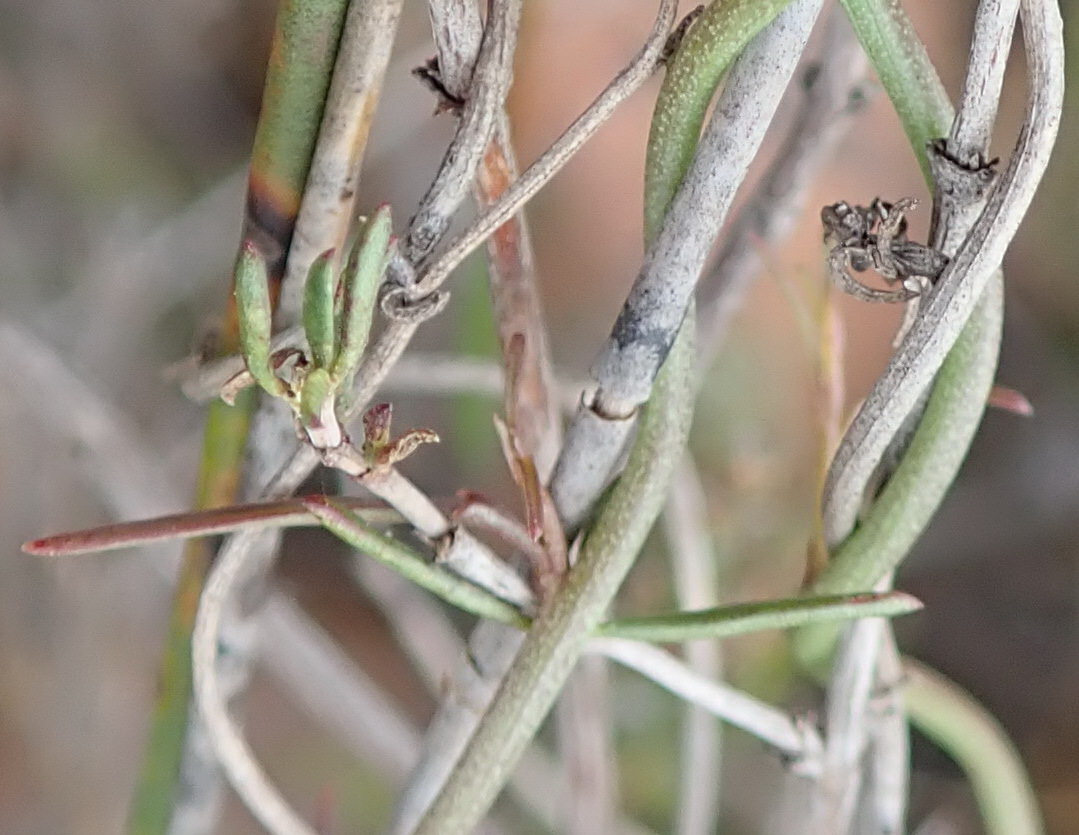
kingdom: Plantae
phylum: Tracheophyta
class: Magnoliopsida
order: Asterales
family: Campanulaceae
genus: Cyphia
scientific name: Cyphia digitata
